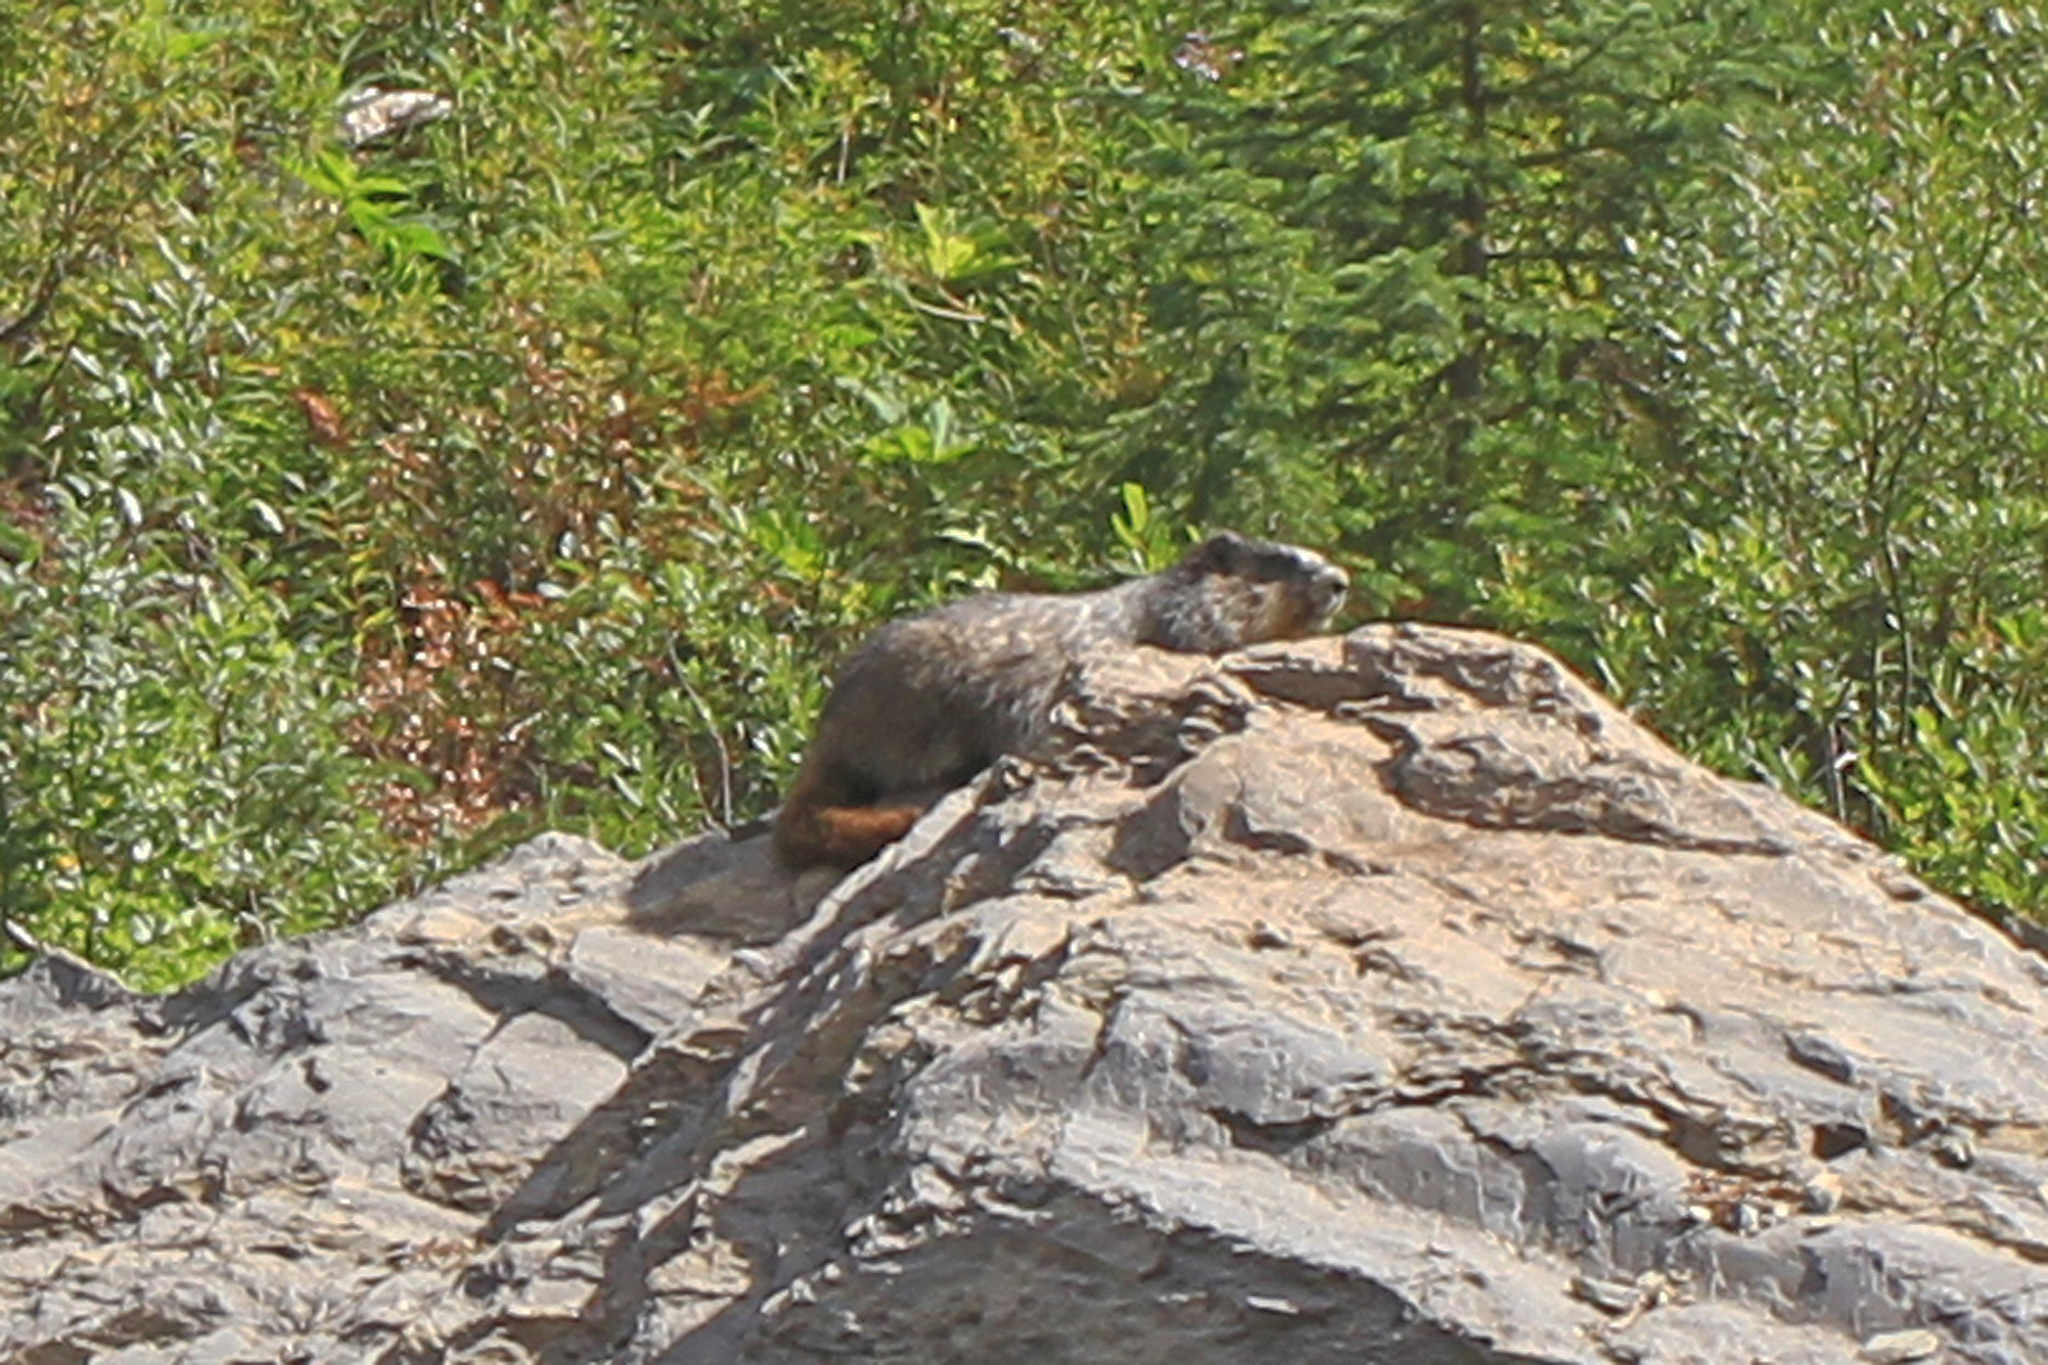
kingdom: Animalia
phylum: Chordata
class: Mammalia
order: Rodentia
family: Sciuridae
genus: Marmota
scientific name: Marmota caligata
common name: Hoary marmot
